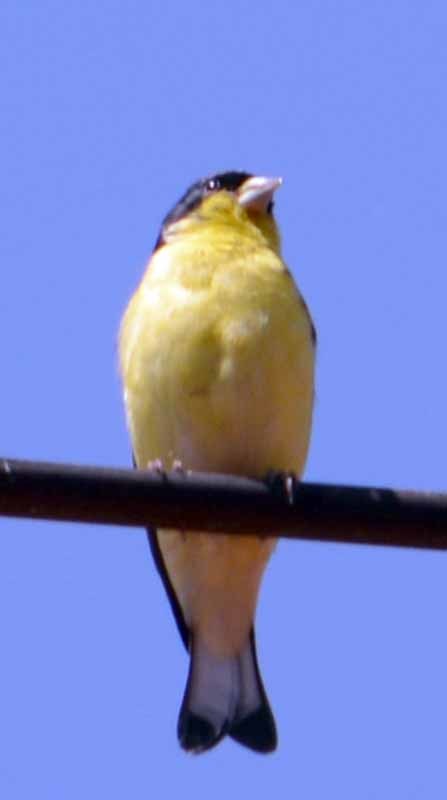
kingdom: Animalia
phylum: Chordata
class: Aves
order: Passeriformes
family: Fringillidae
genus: Spinus
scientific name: Spinus psaltria
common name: Lesser goldfinch
